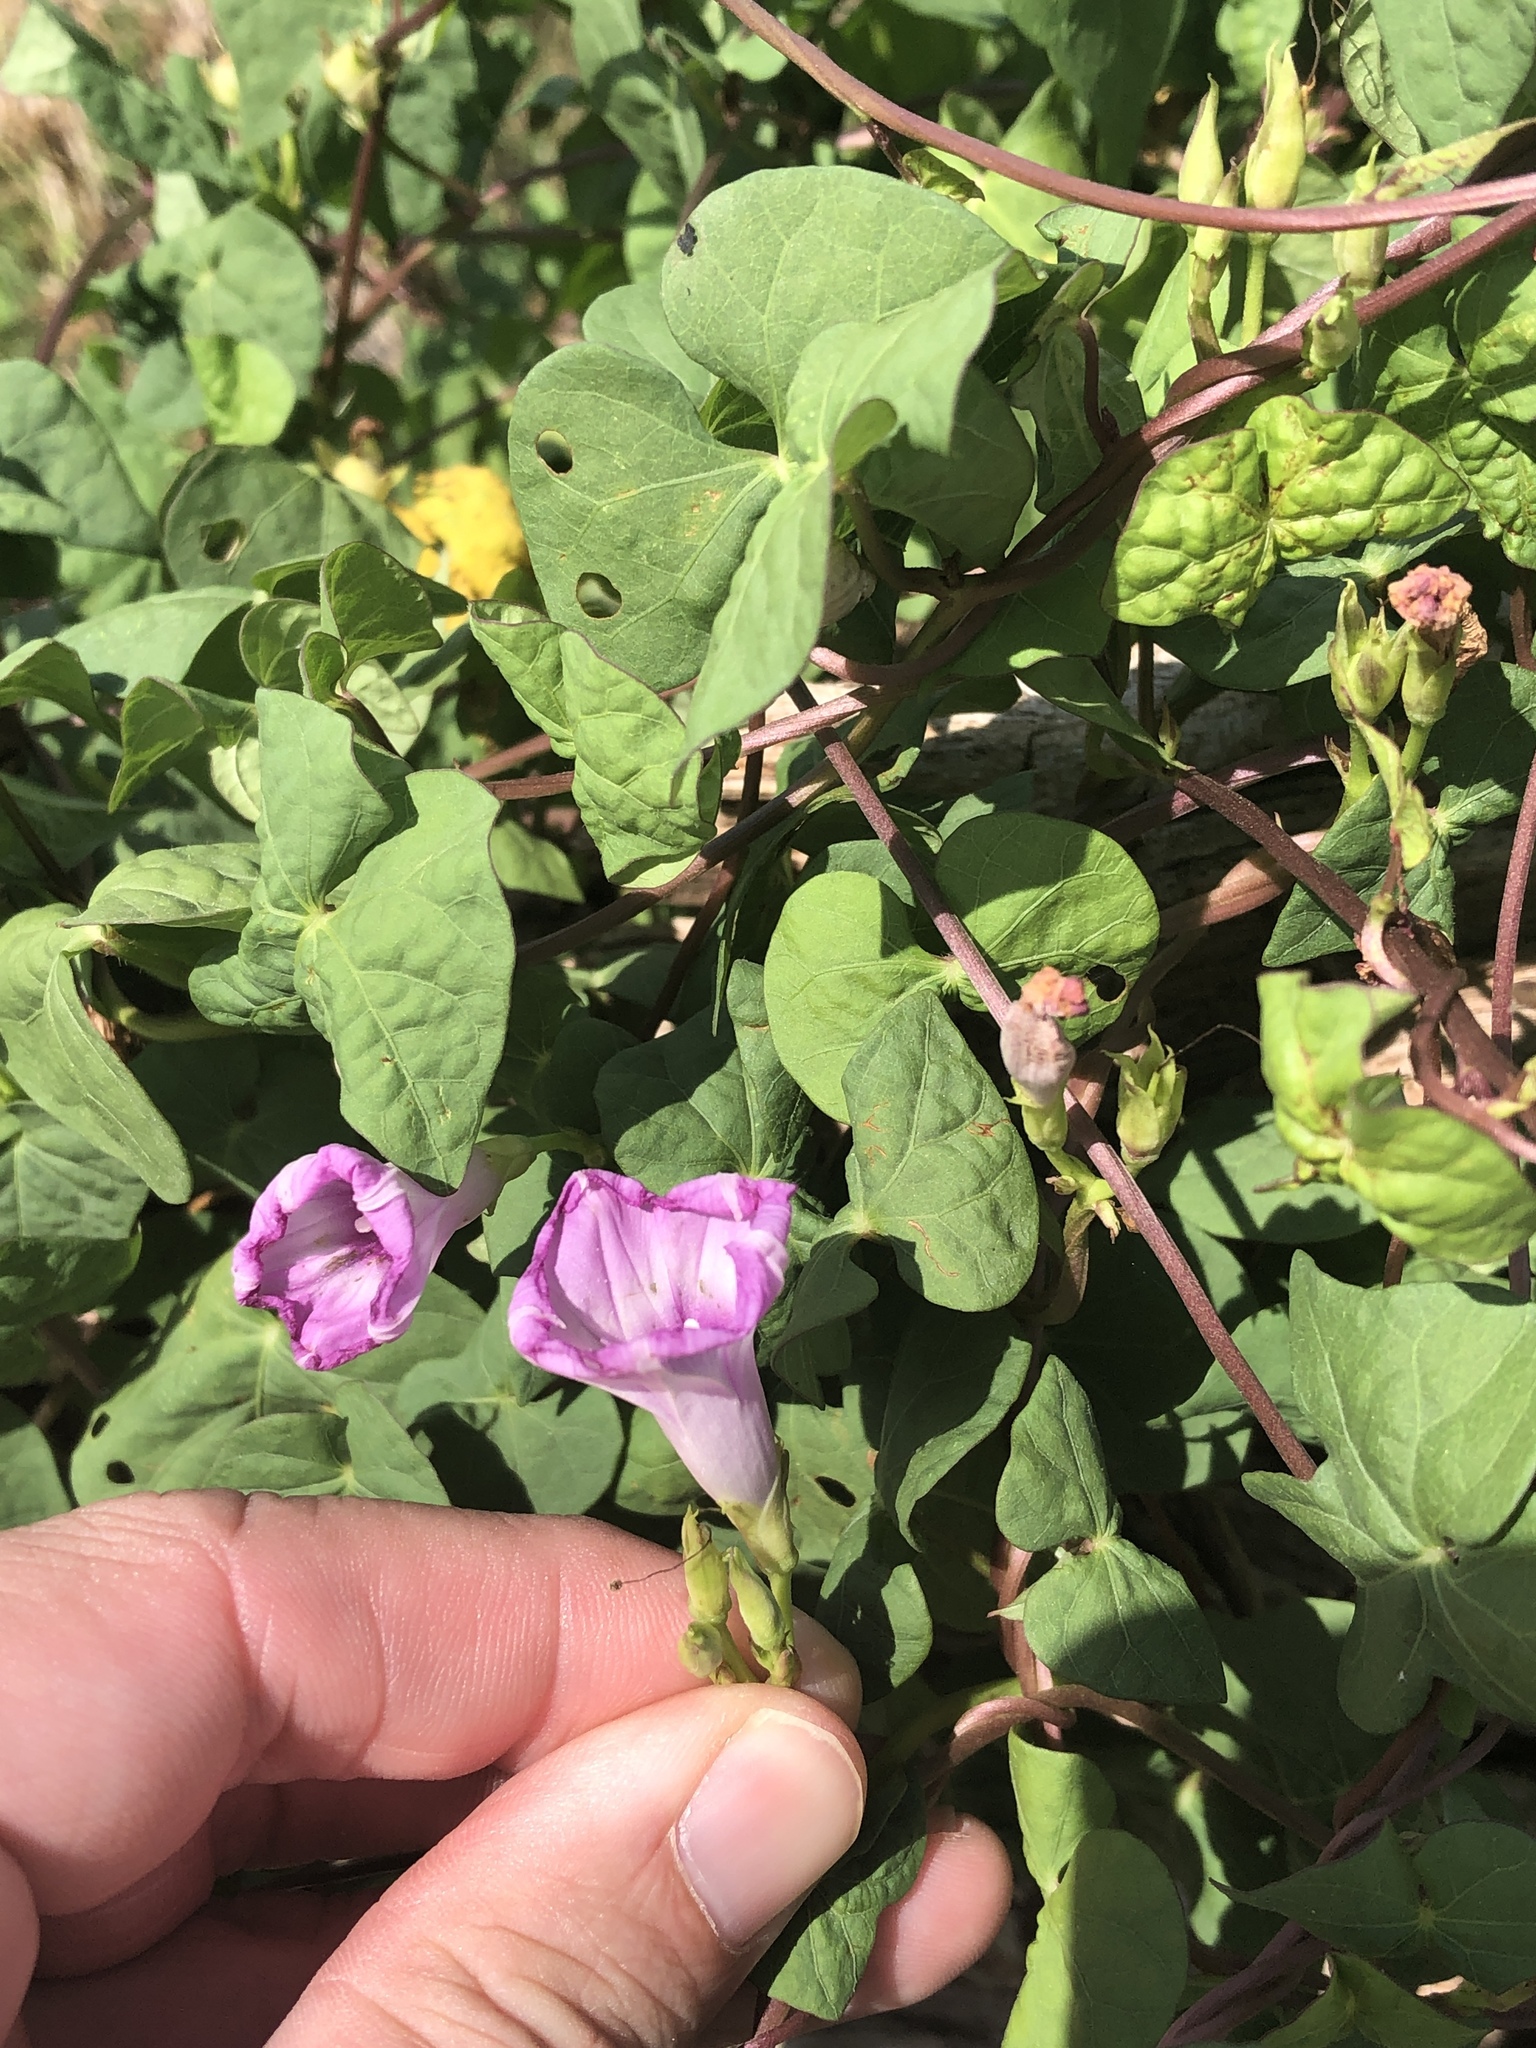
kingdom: Plantae
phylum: Tracheophyta
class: Magnoliopsida
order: Solanales
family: Convolvulaceae
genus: Ipomoea
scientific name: Ipomoea cordatotriloba
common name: Cotton morning glory
